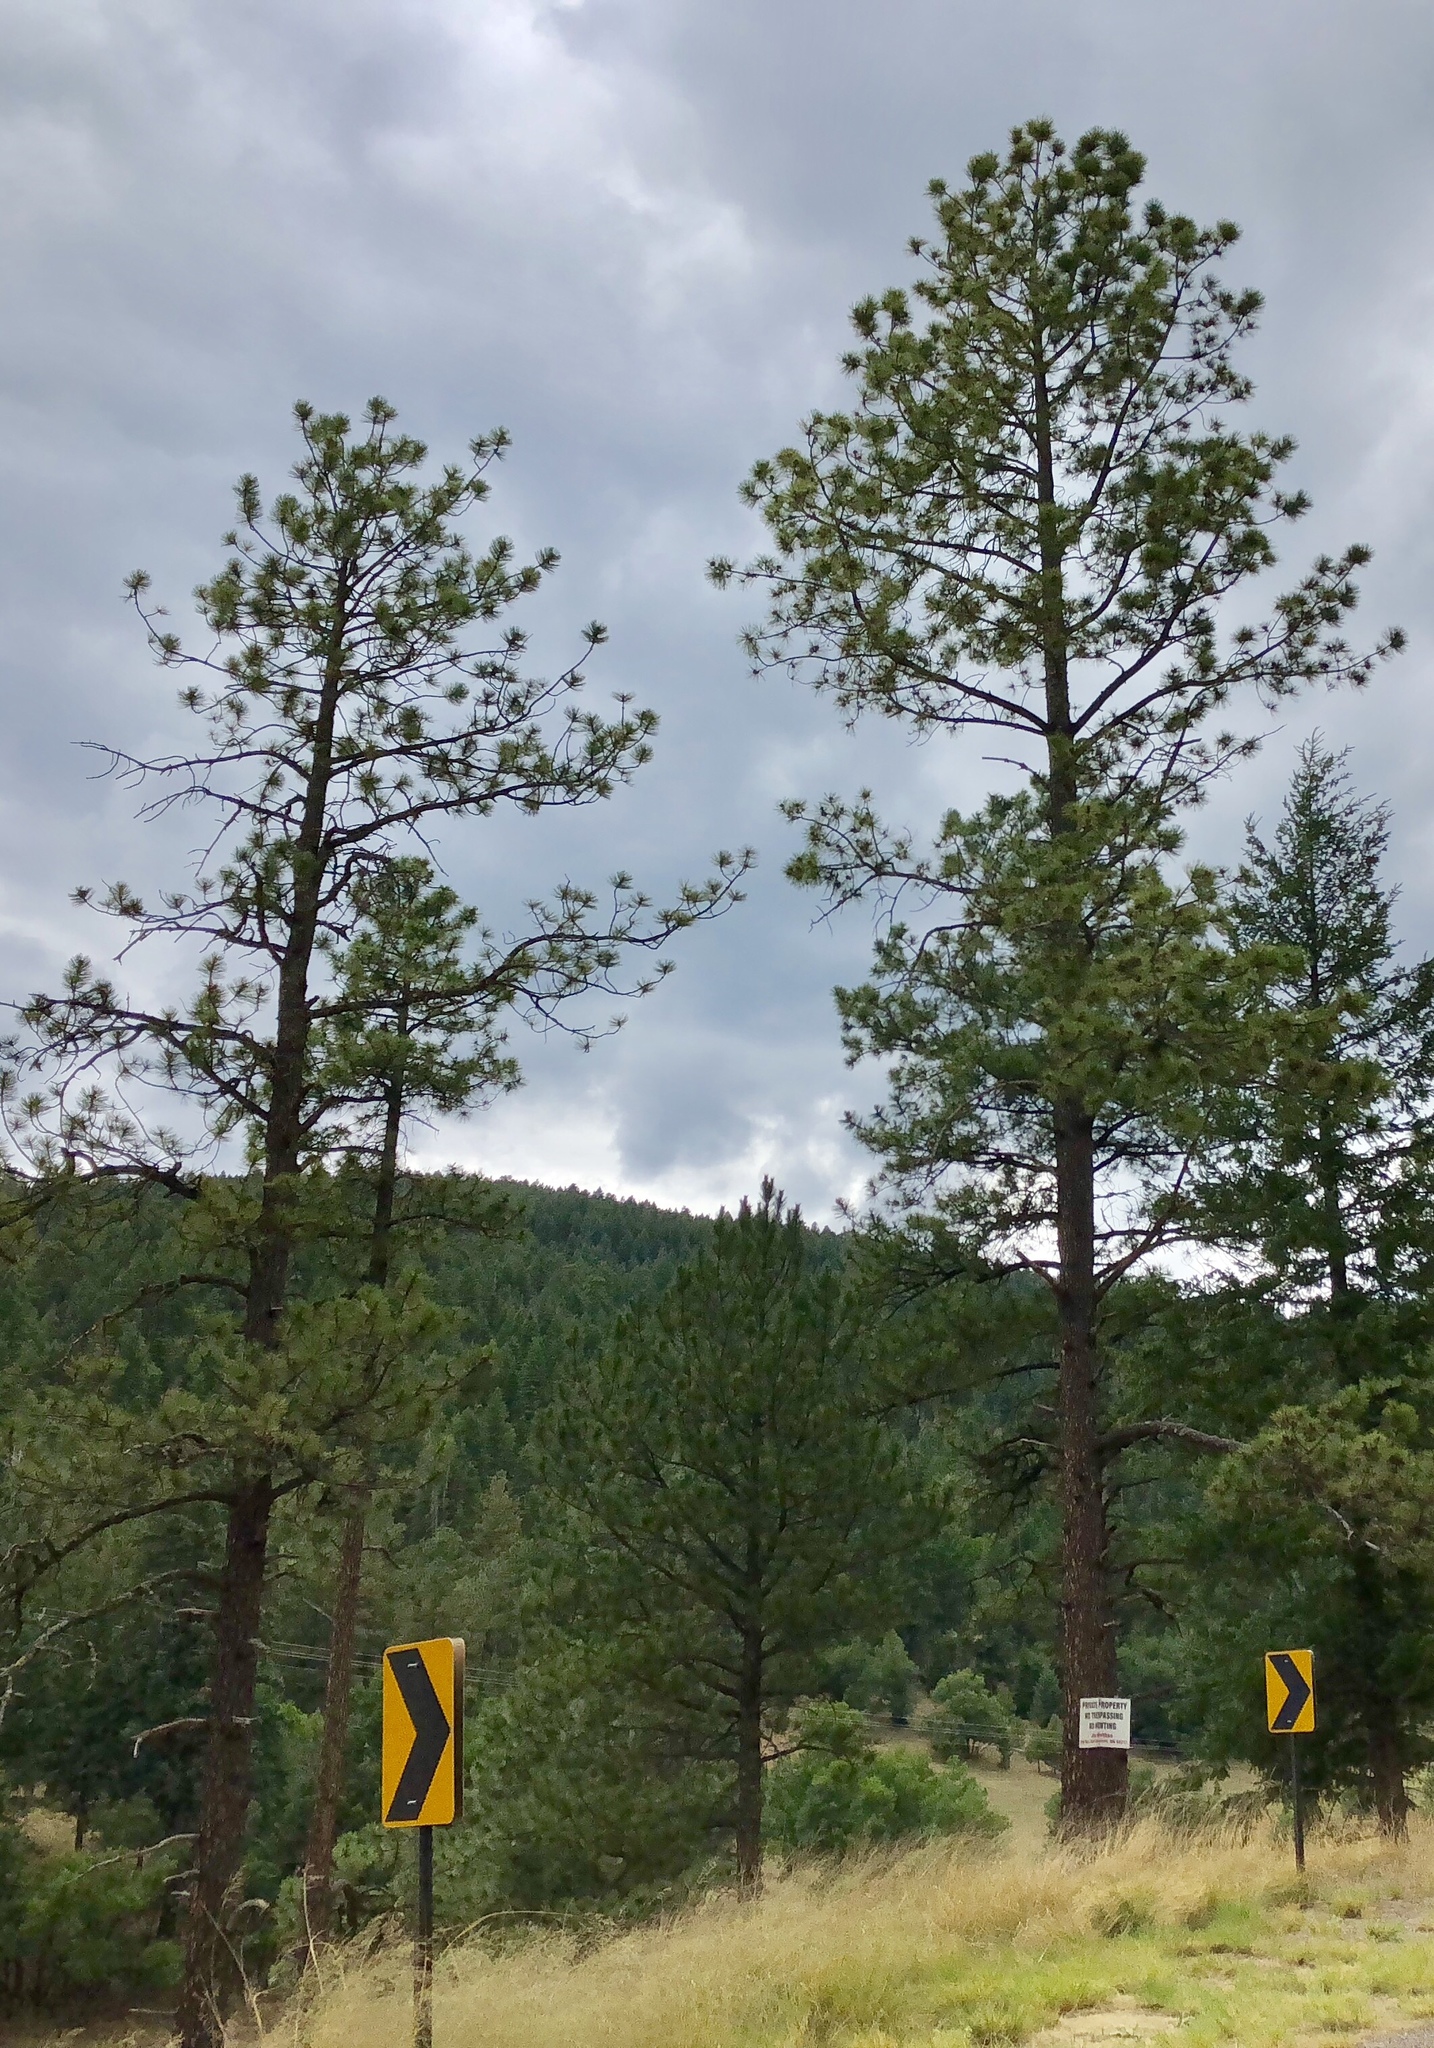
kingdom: Plantae
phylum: Tracheophyta
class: Pinopsida
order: Pinales
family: Pinaceae
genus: Pinus
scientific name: Pinus ponderosa
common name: Western yellow-pine
